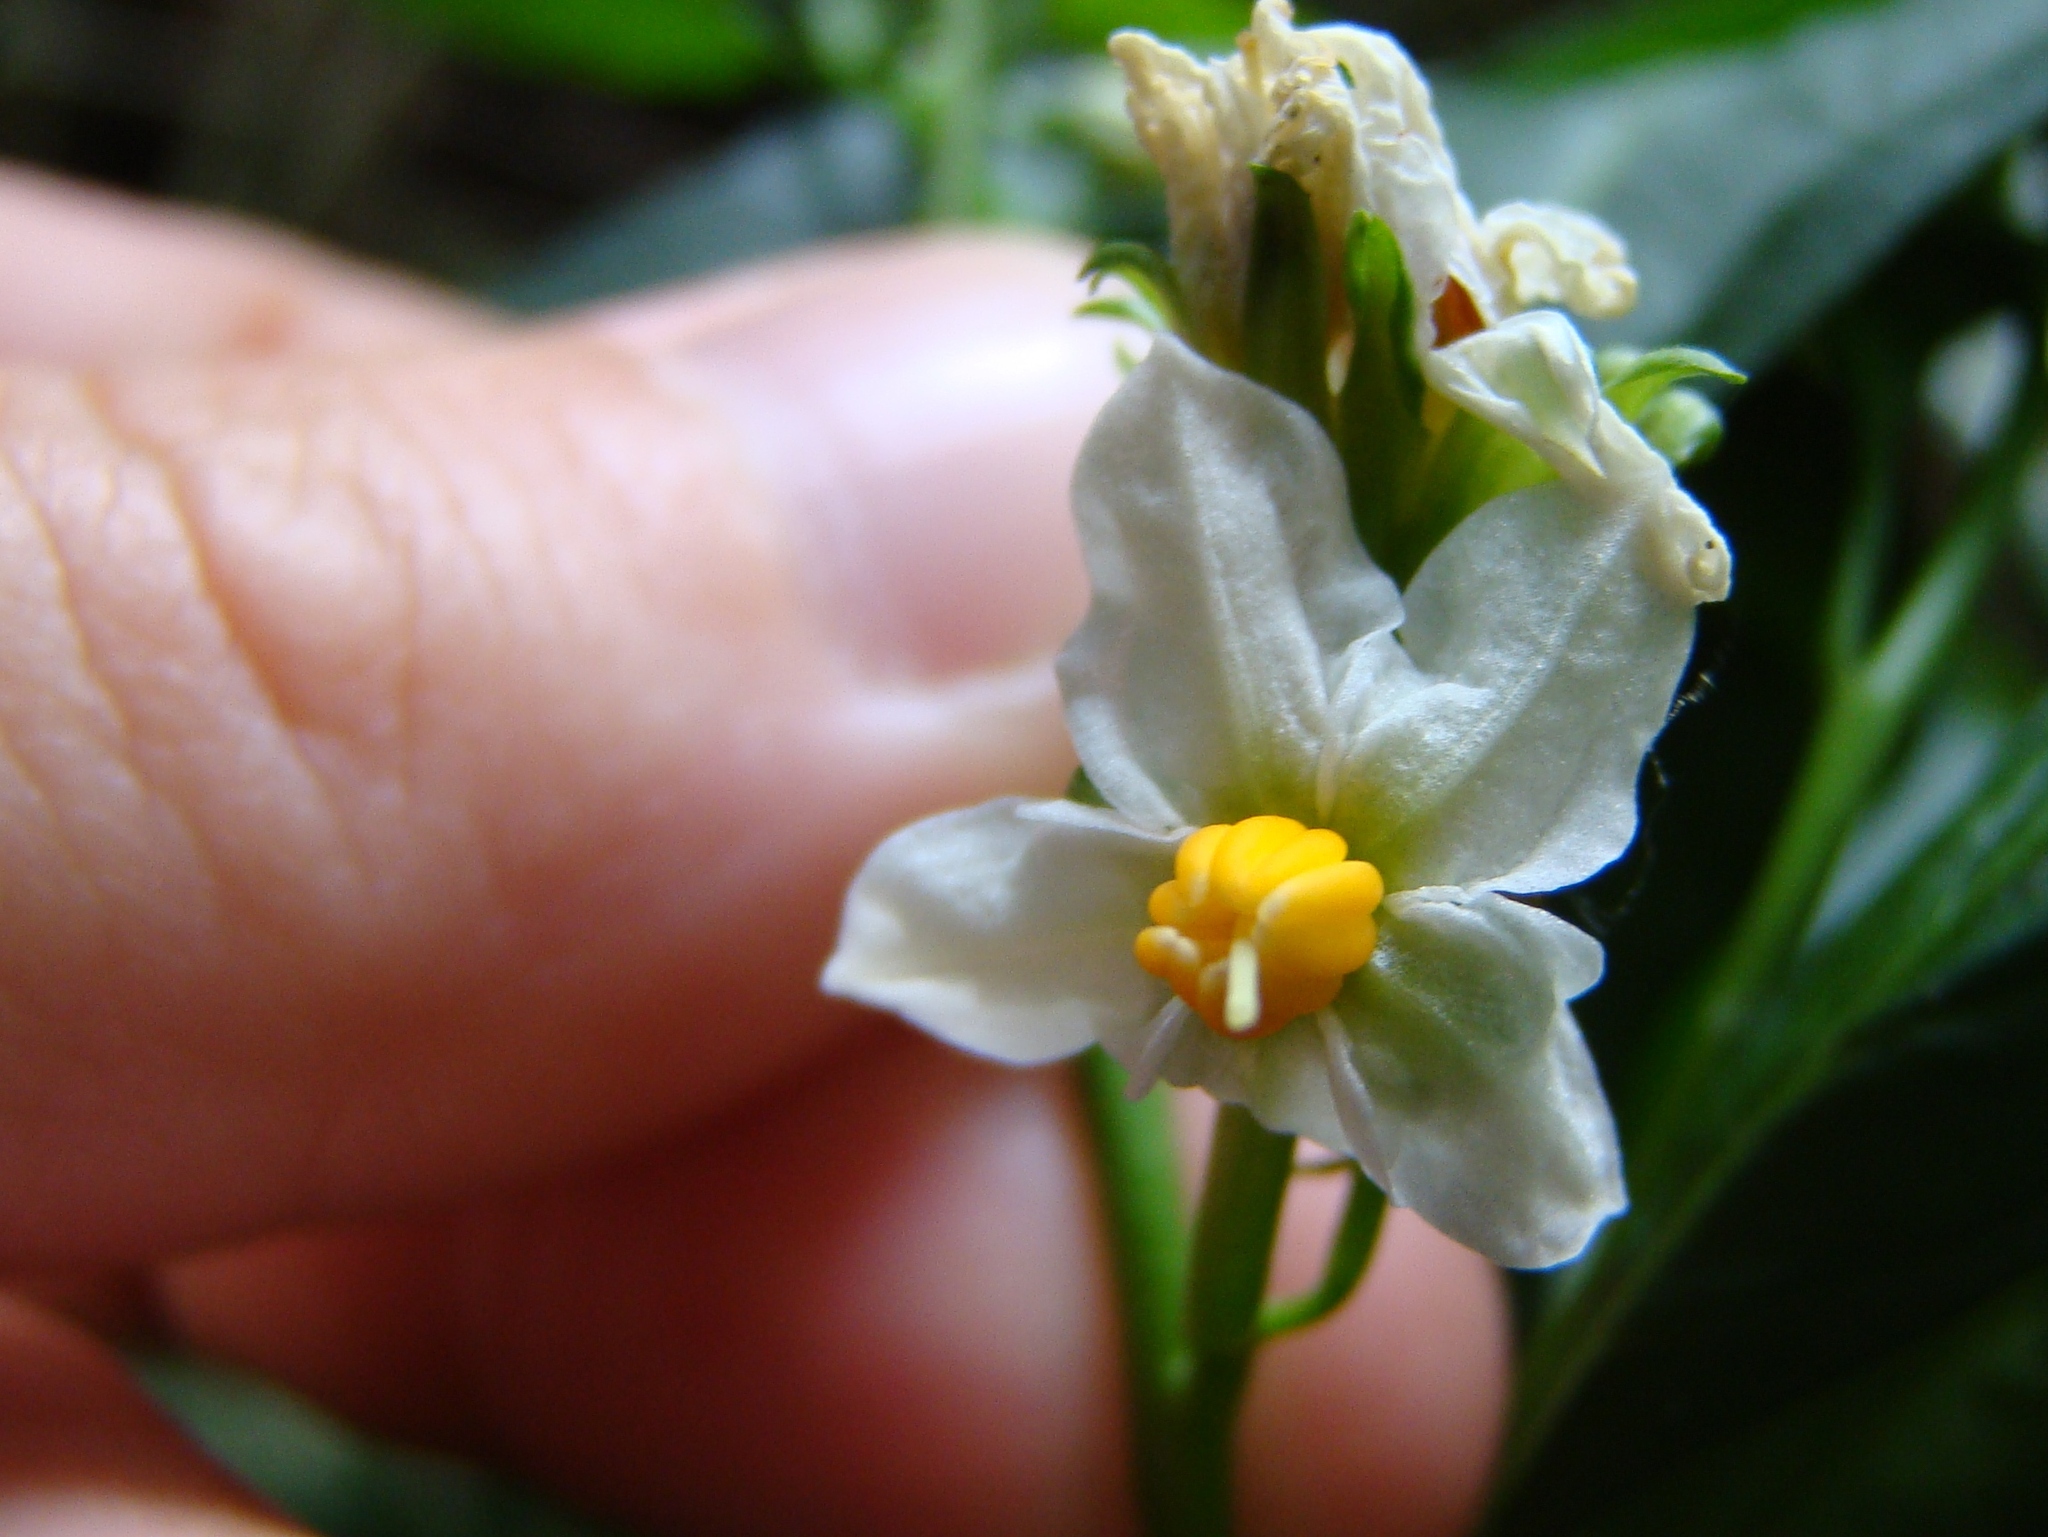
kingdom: Plantae
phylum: Tracheophyta
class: Magnoliopsida
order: Solanales
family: Solanaceae
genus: Solanum
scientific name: Solanum pseudocapsicum
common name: Jerusalem cherry
